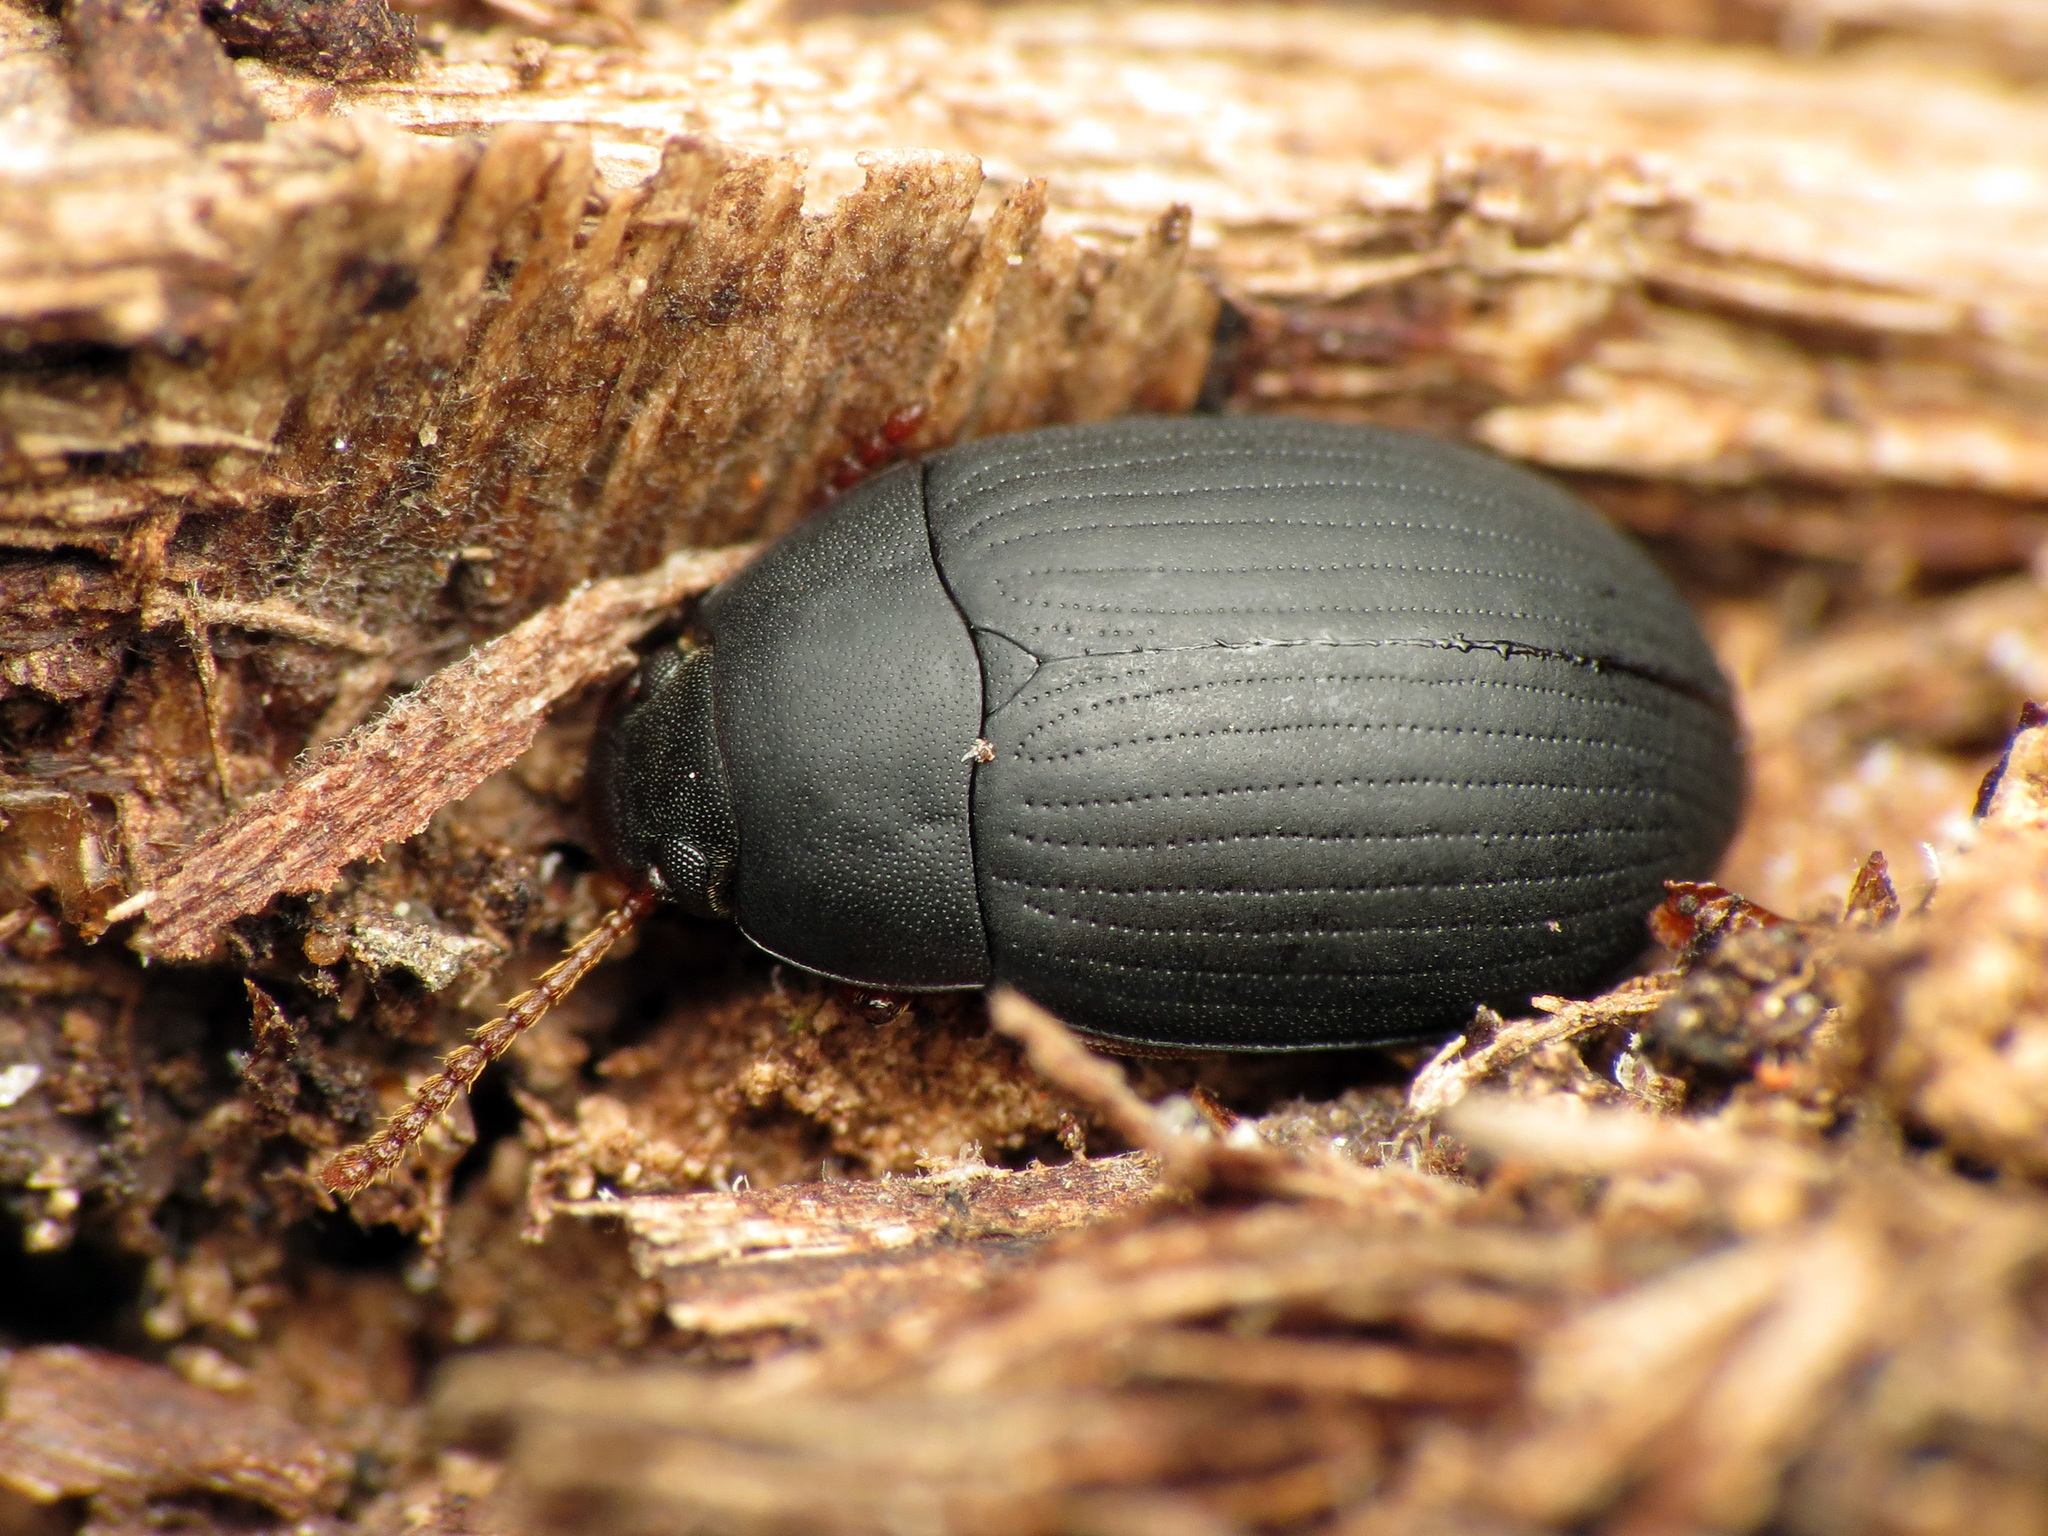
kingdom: Animalia
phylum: Arthropoda
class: Insecta
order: Coleoptera
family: Tenebrionidae
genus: Platydema
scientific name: Platydema ruficornis
